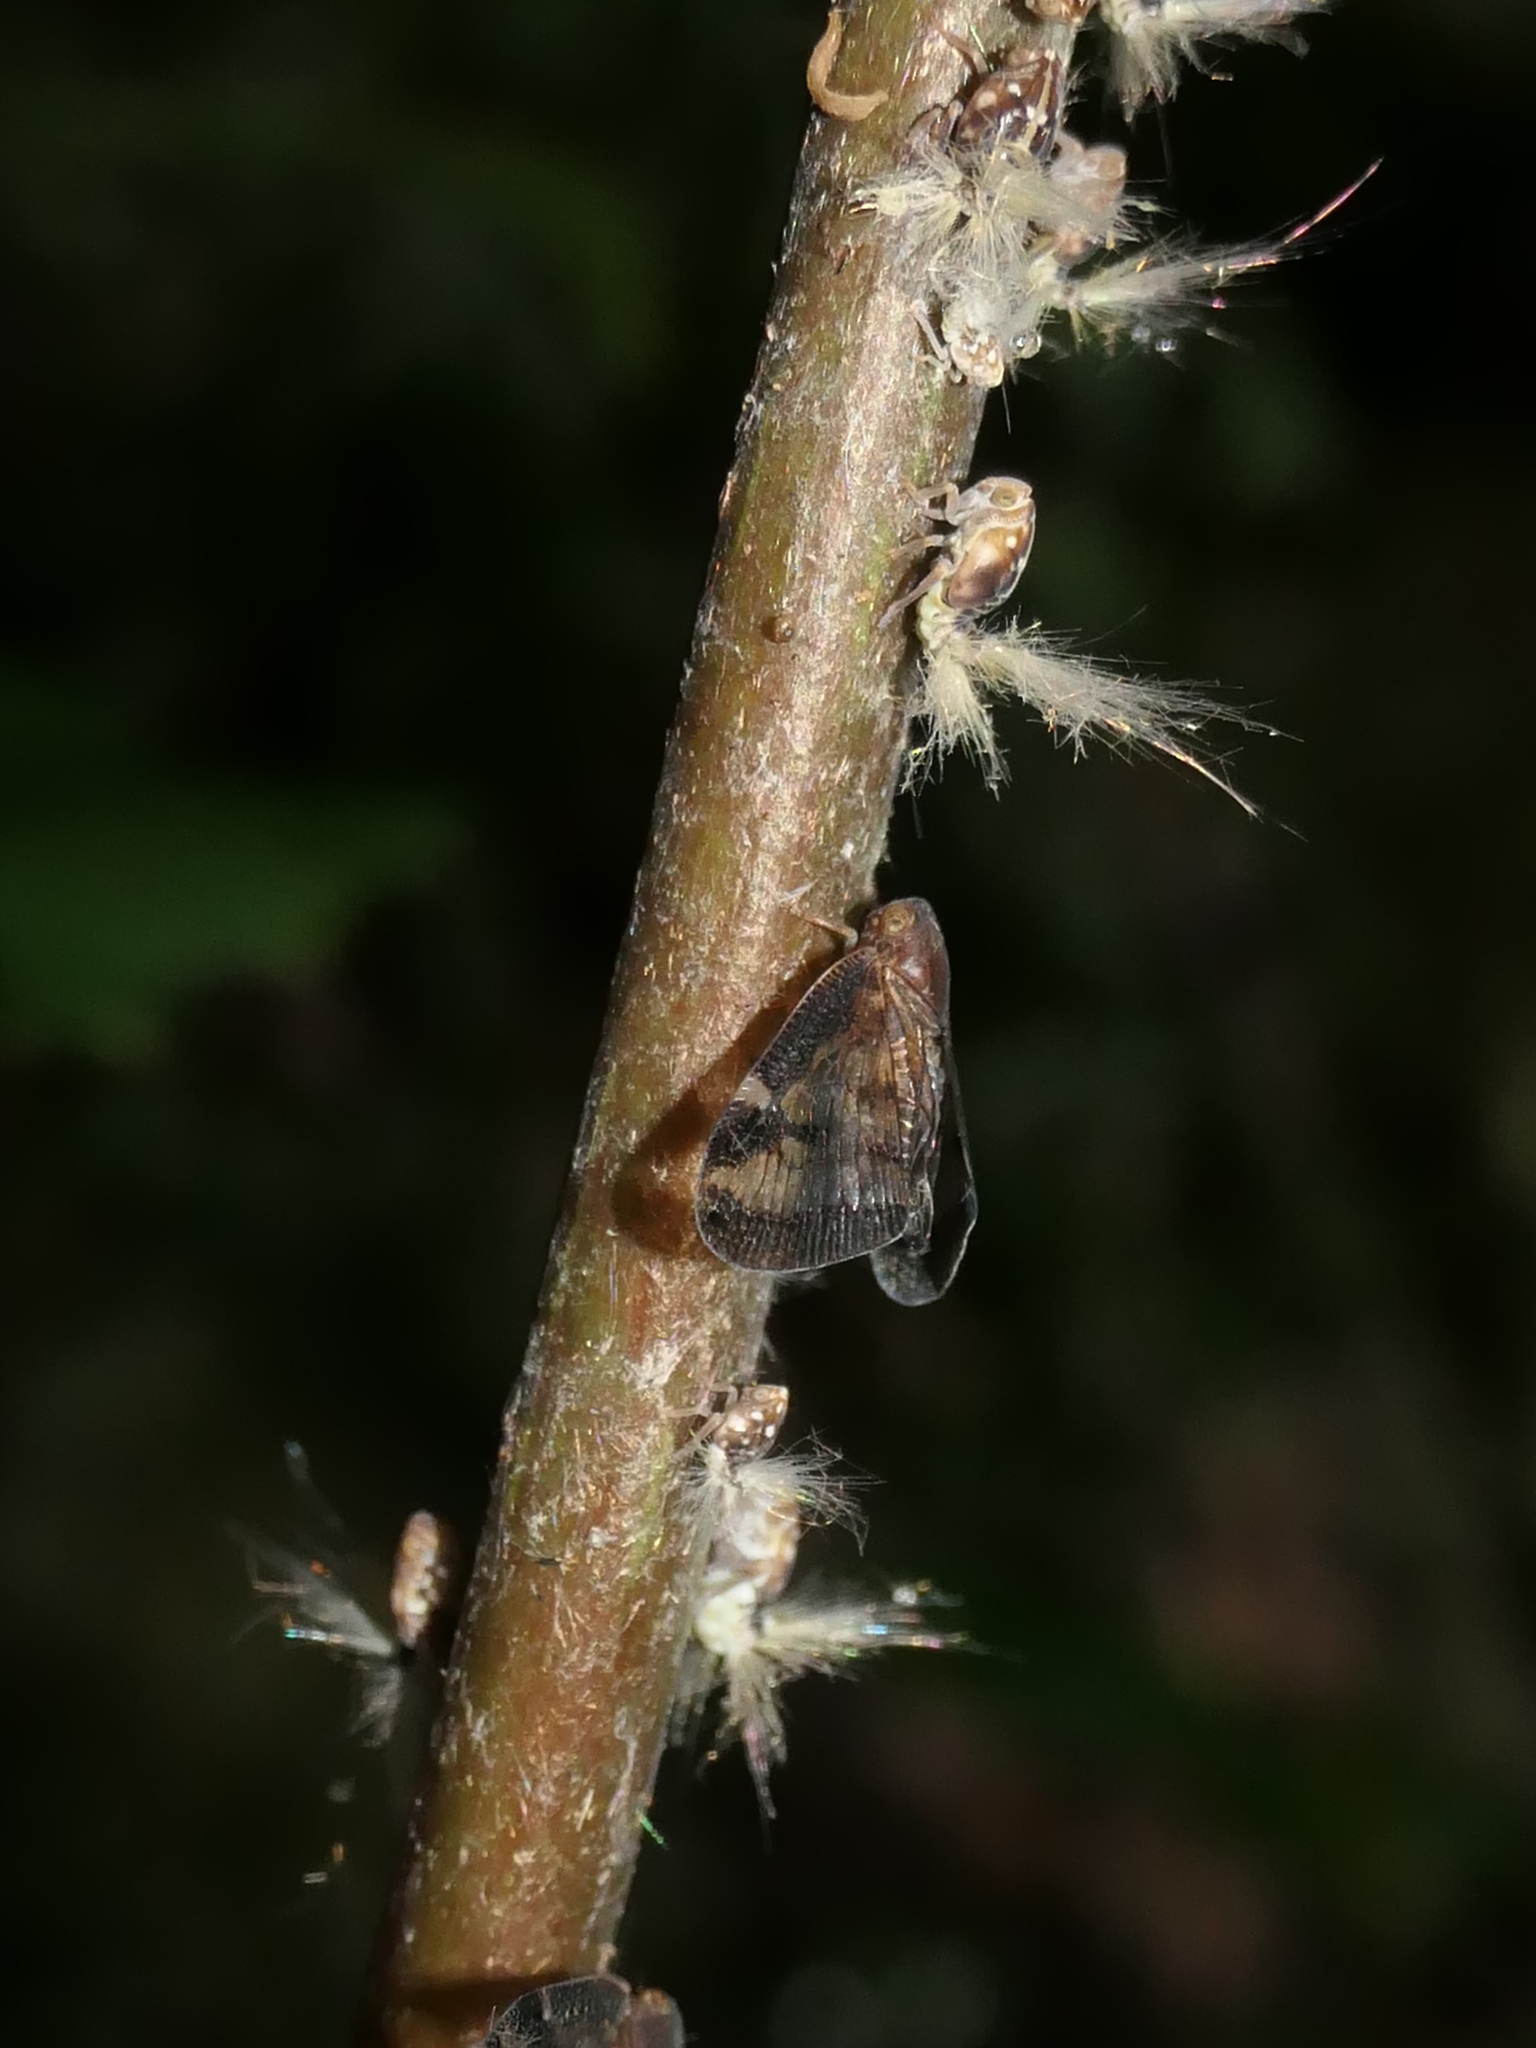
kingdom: Animalia
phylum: Arthropoda
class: Insecta
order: Hemiptera
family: Ricaniidae
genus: Scolypopa
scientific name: Scolypopa australis
